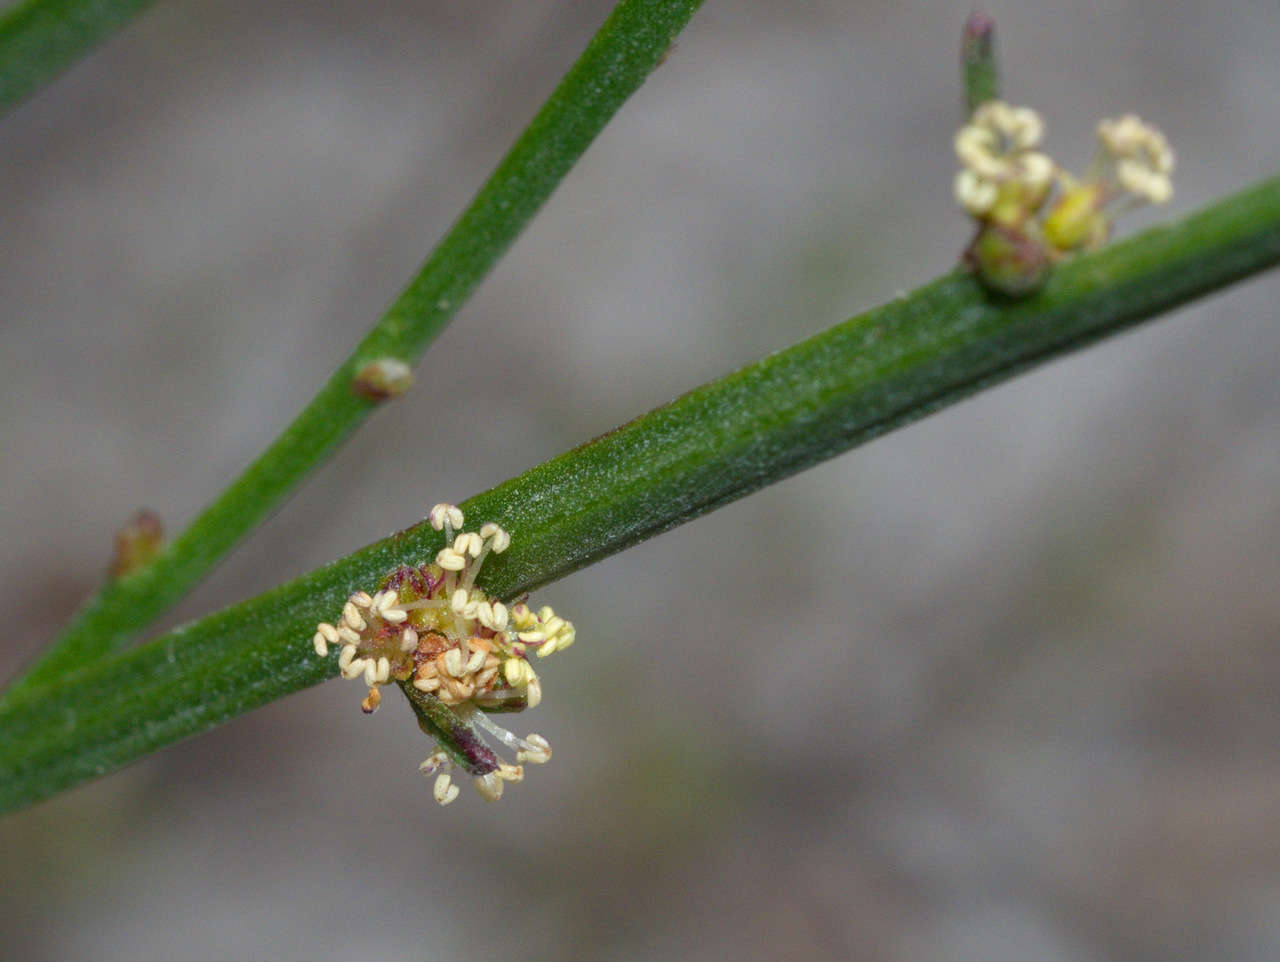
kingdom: Plantae
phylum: Tracheophyta
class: Magnoliopsida
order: Malpighiales
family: Euphorbiaceae
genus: Amperea
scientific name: Amperea xiphoclada
